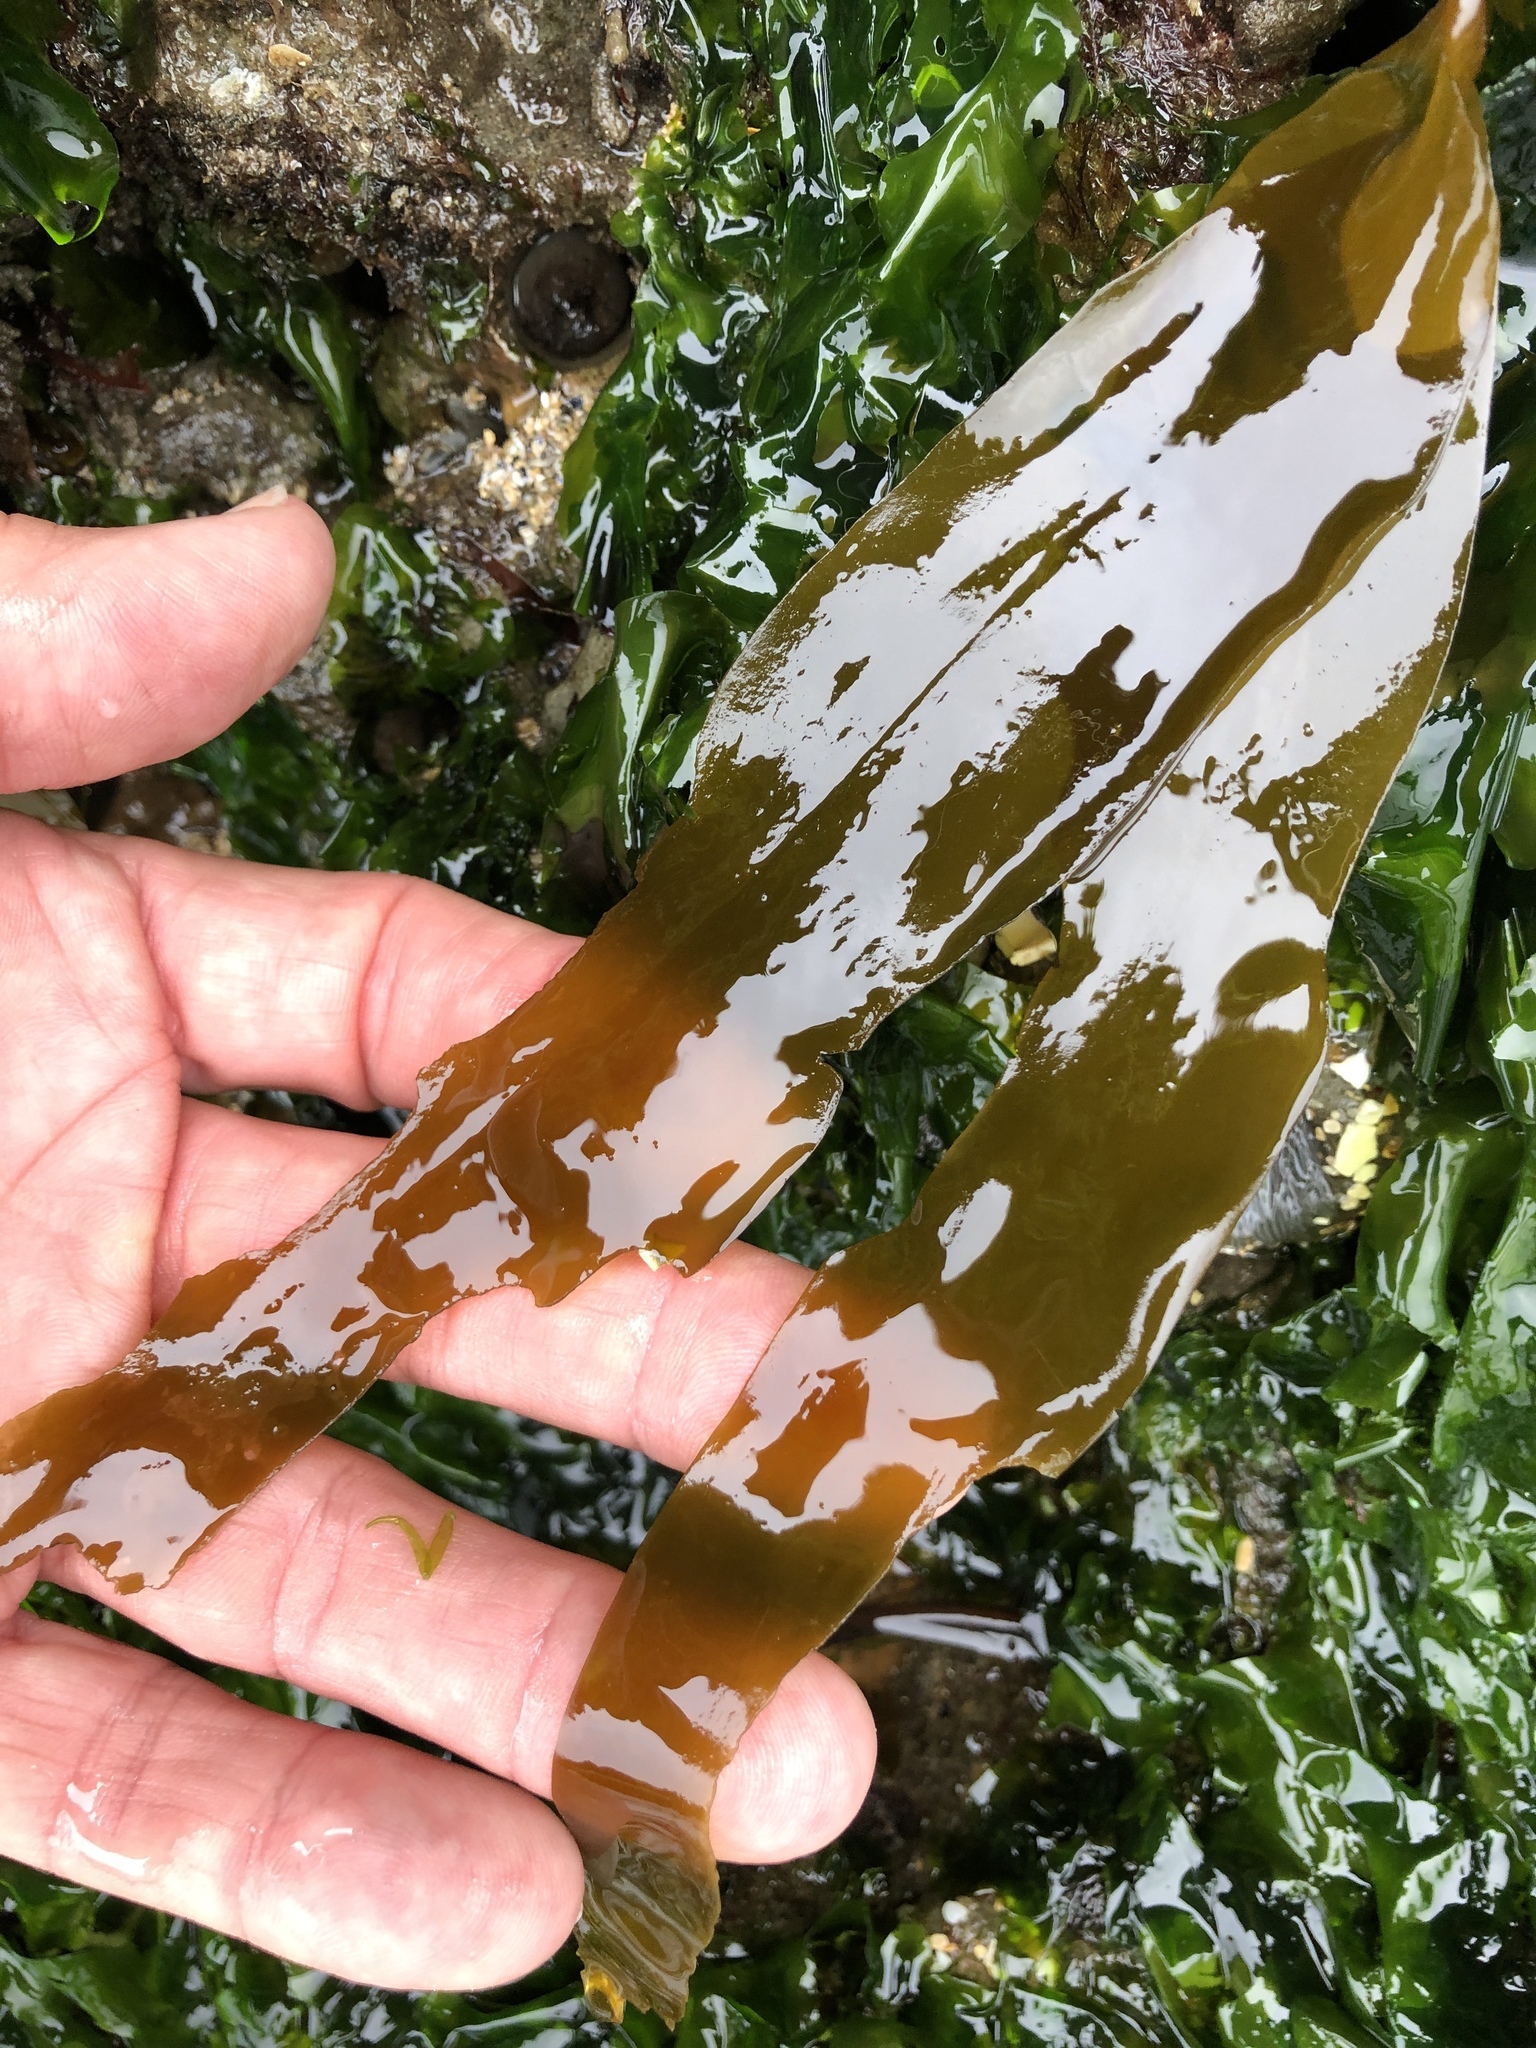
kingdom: Chromista
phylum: Ochrophyta
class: Phaeophyceae
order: Laminariales
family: Lessoniaceae
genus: Egregia
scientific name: Egregia menziesii
